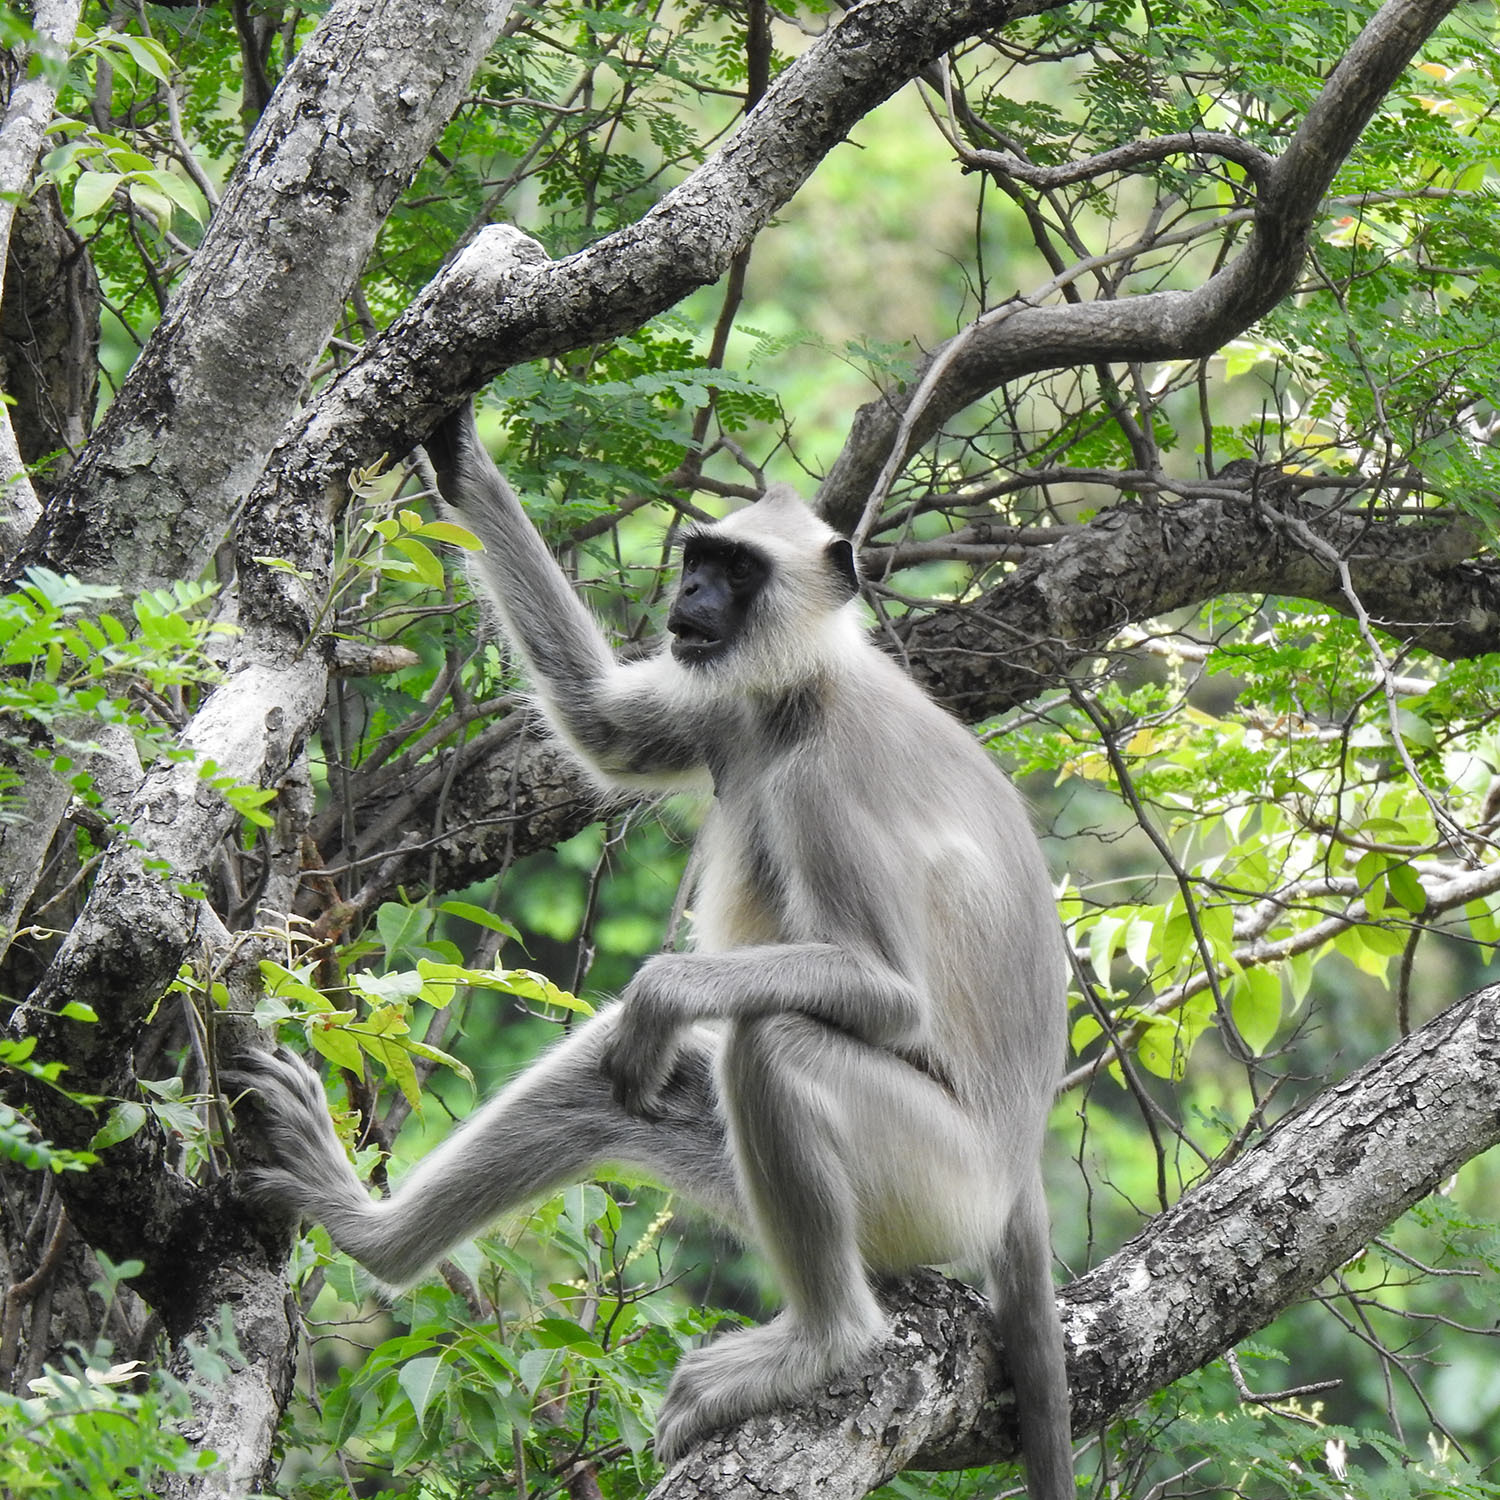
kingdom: Animalia
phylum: Chordata
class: Mammalia
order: Primates
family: Cercopithecidae
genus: Semnopithecus
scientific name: Semnopithecus priam
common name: Tufted gray langur
